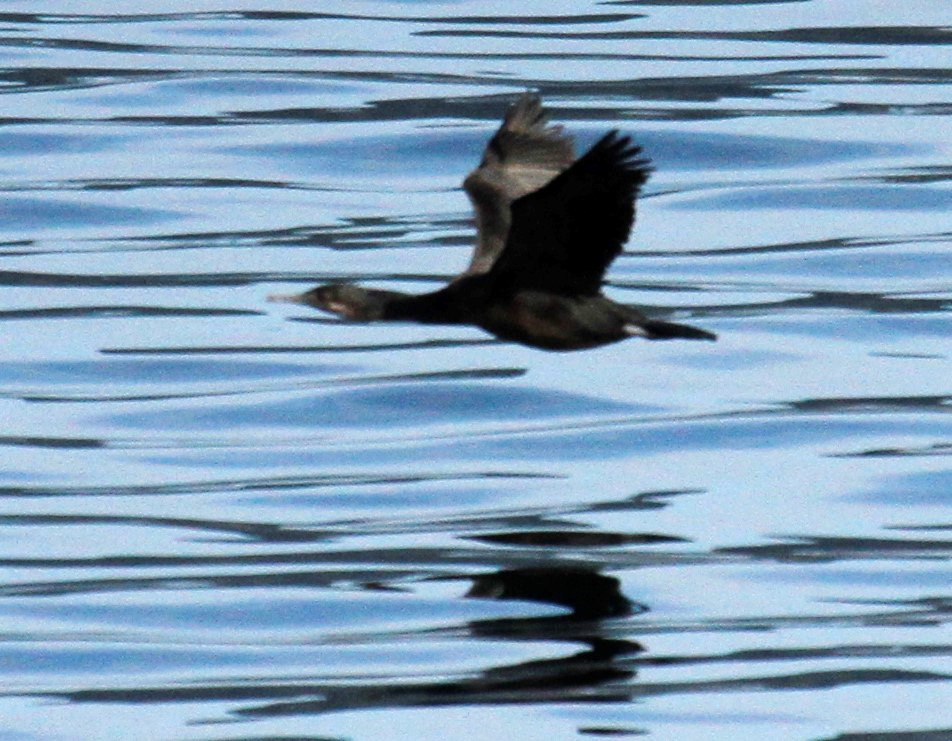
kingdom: Animalia
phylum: Chordata
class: Aves
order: Suliformes
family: Phalacrocoracidae
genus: Urile
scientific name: Urile penicillatus
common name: Brandt's cormorant
